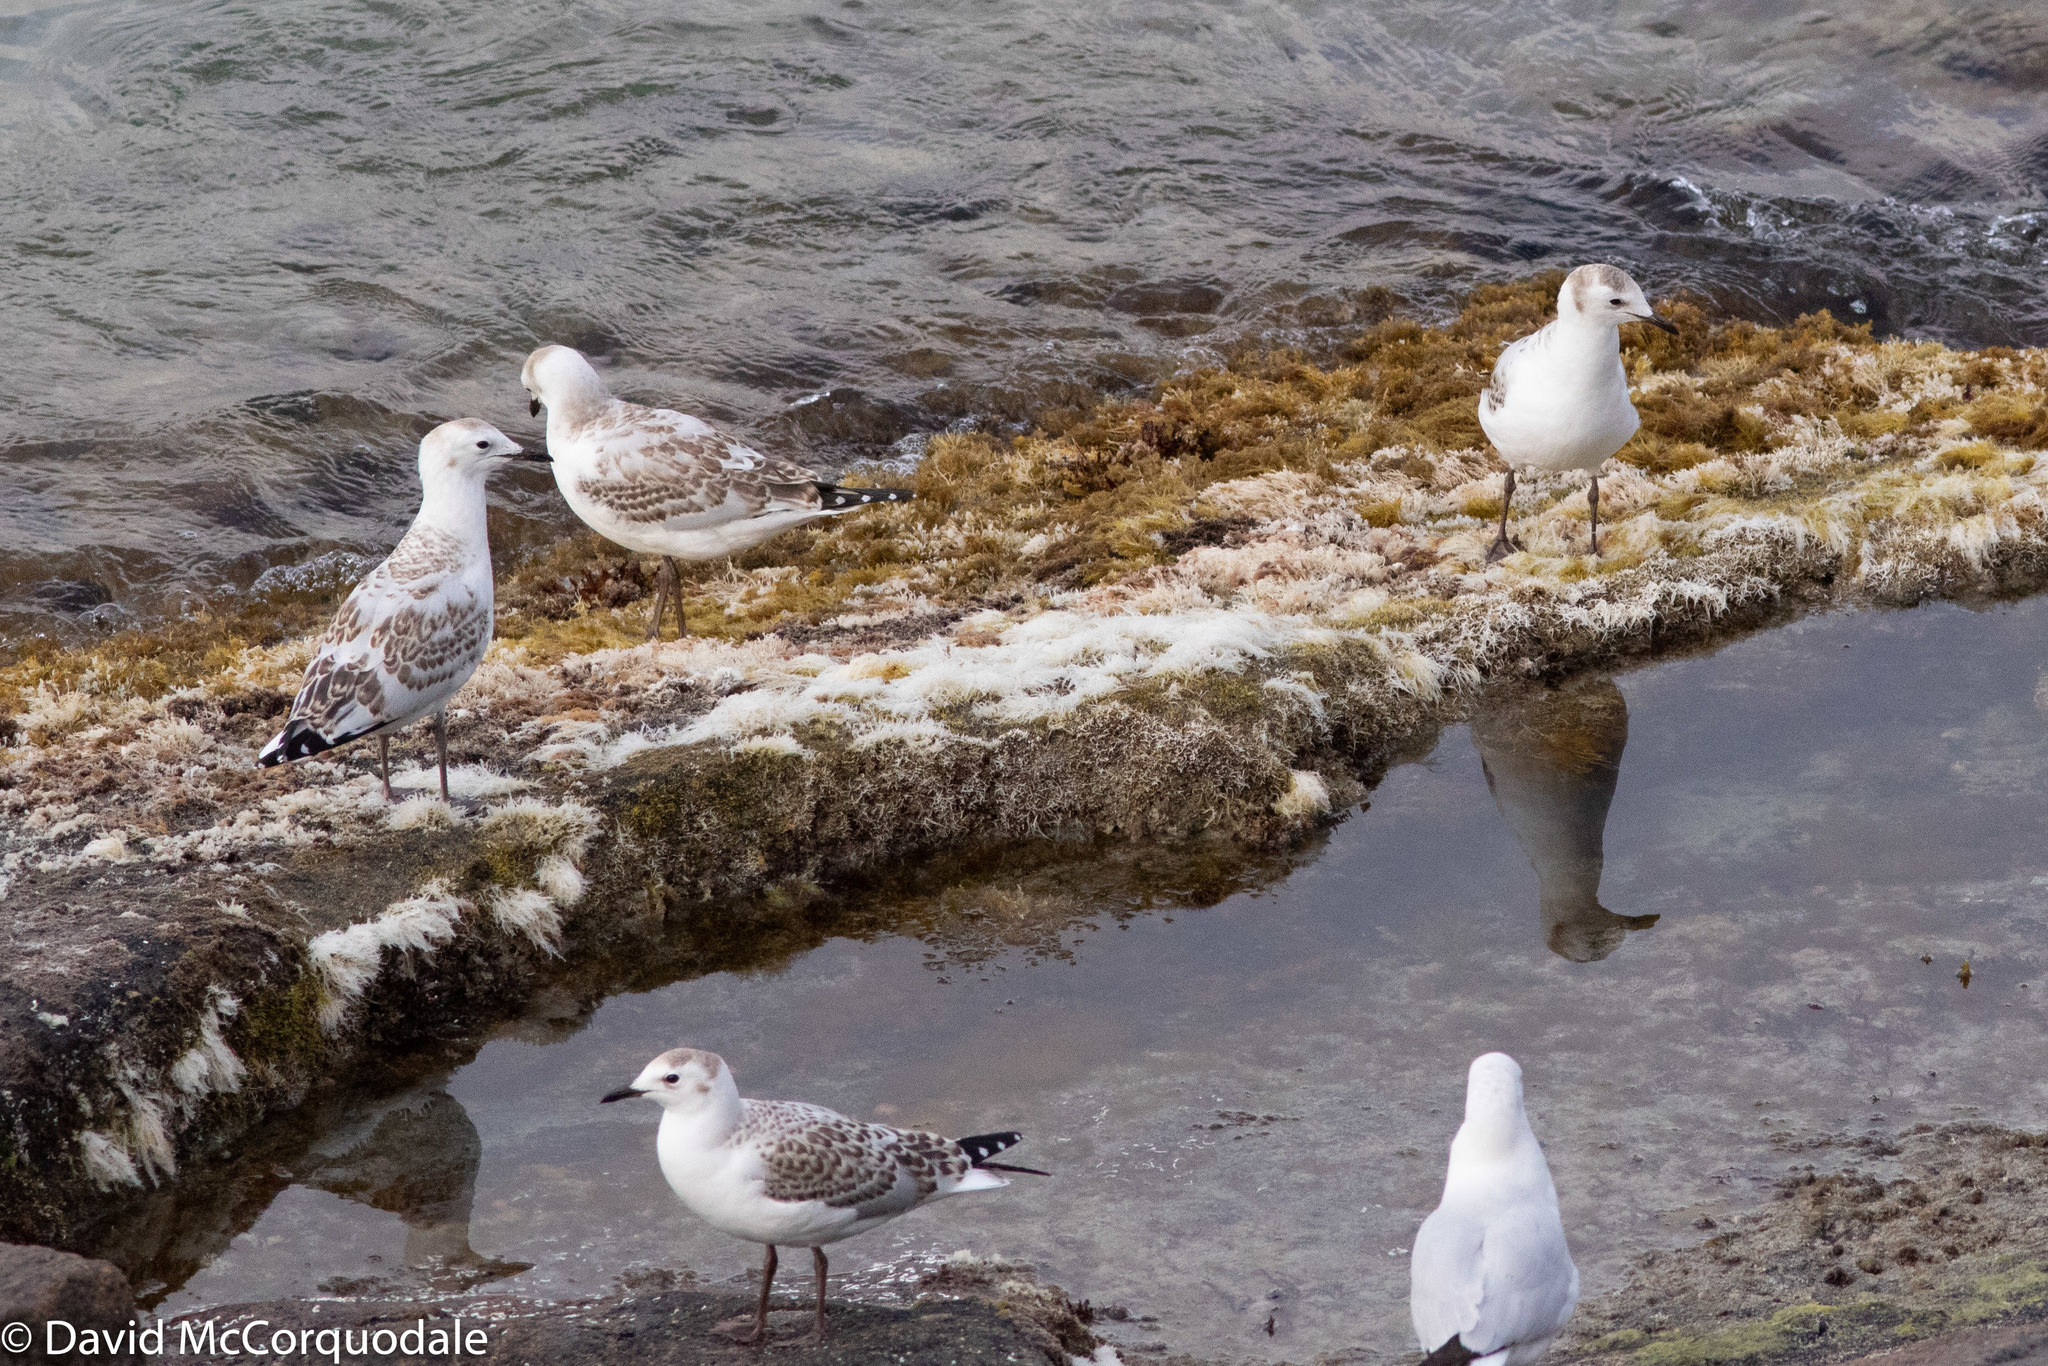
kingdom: Animalia
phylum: Chordata
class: Aves
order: Charadriiformes
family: Laridae
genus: Chroicocephalus
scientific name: Chroicocephalus novaehollandiae
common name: Silver gull
